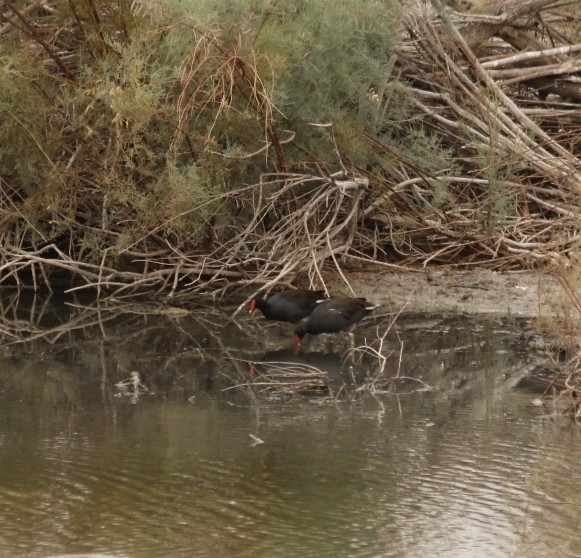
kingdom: Animalia
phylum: Chordata
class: Aves
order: Gruiformes
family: Rallidae
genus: Gallinula
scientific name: Gallinula chloropus
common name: Common moorhen
